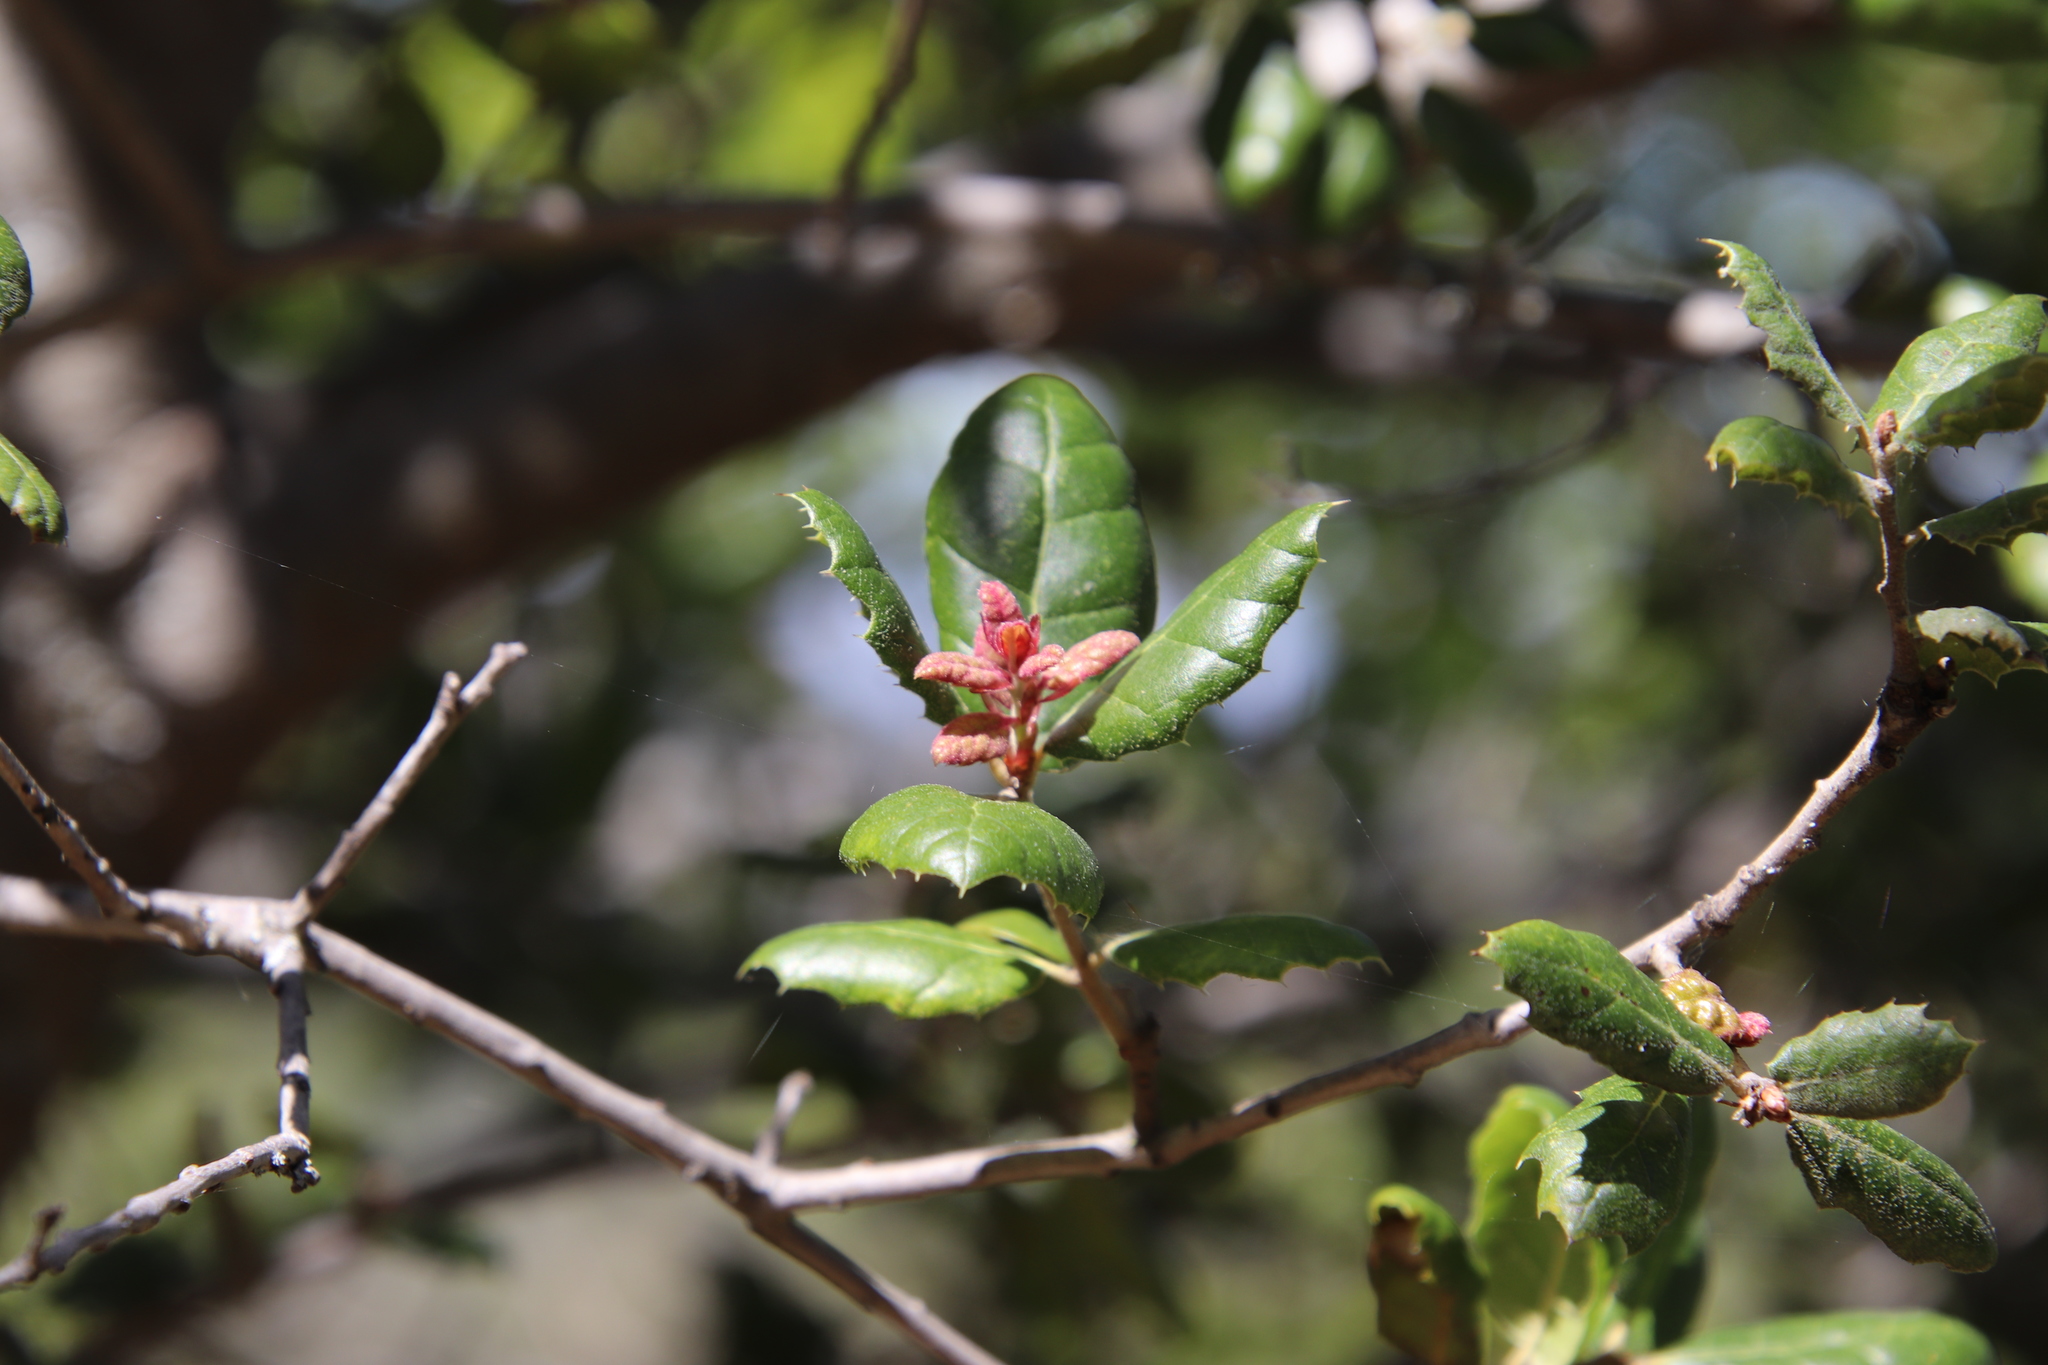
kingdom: Plantae
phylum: Tracheophyta
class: Magnoliopsida
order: Fagales
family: Fagaceae
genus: Quercus
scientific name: Quercus agrifolia
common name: California live oak
